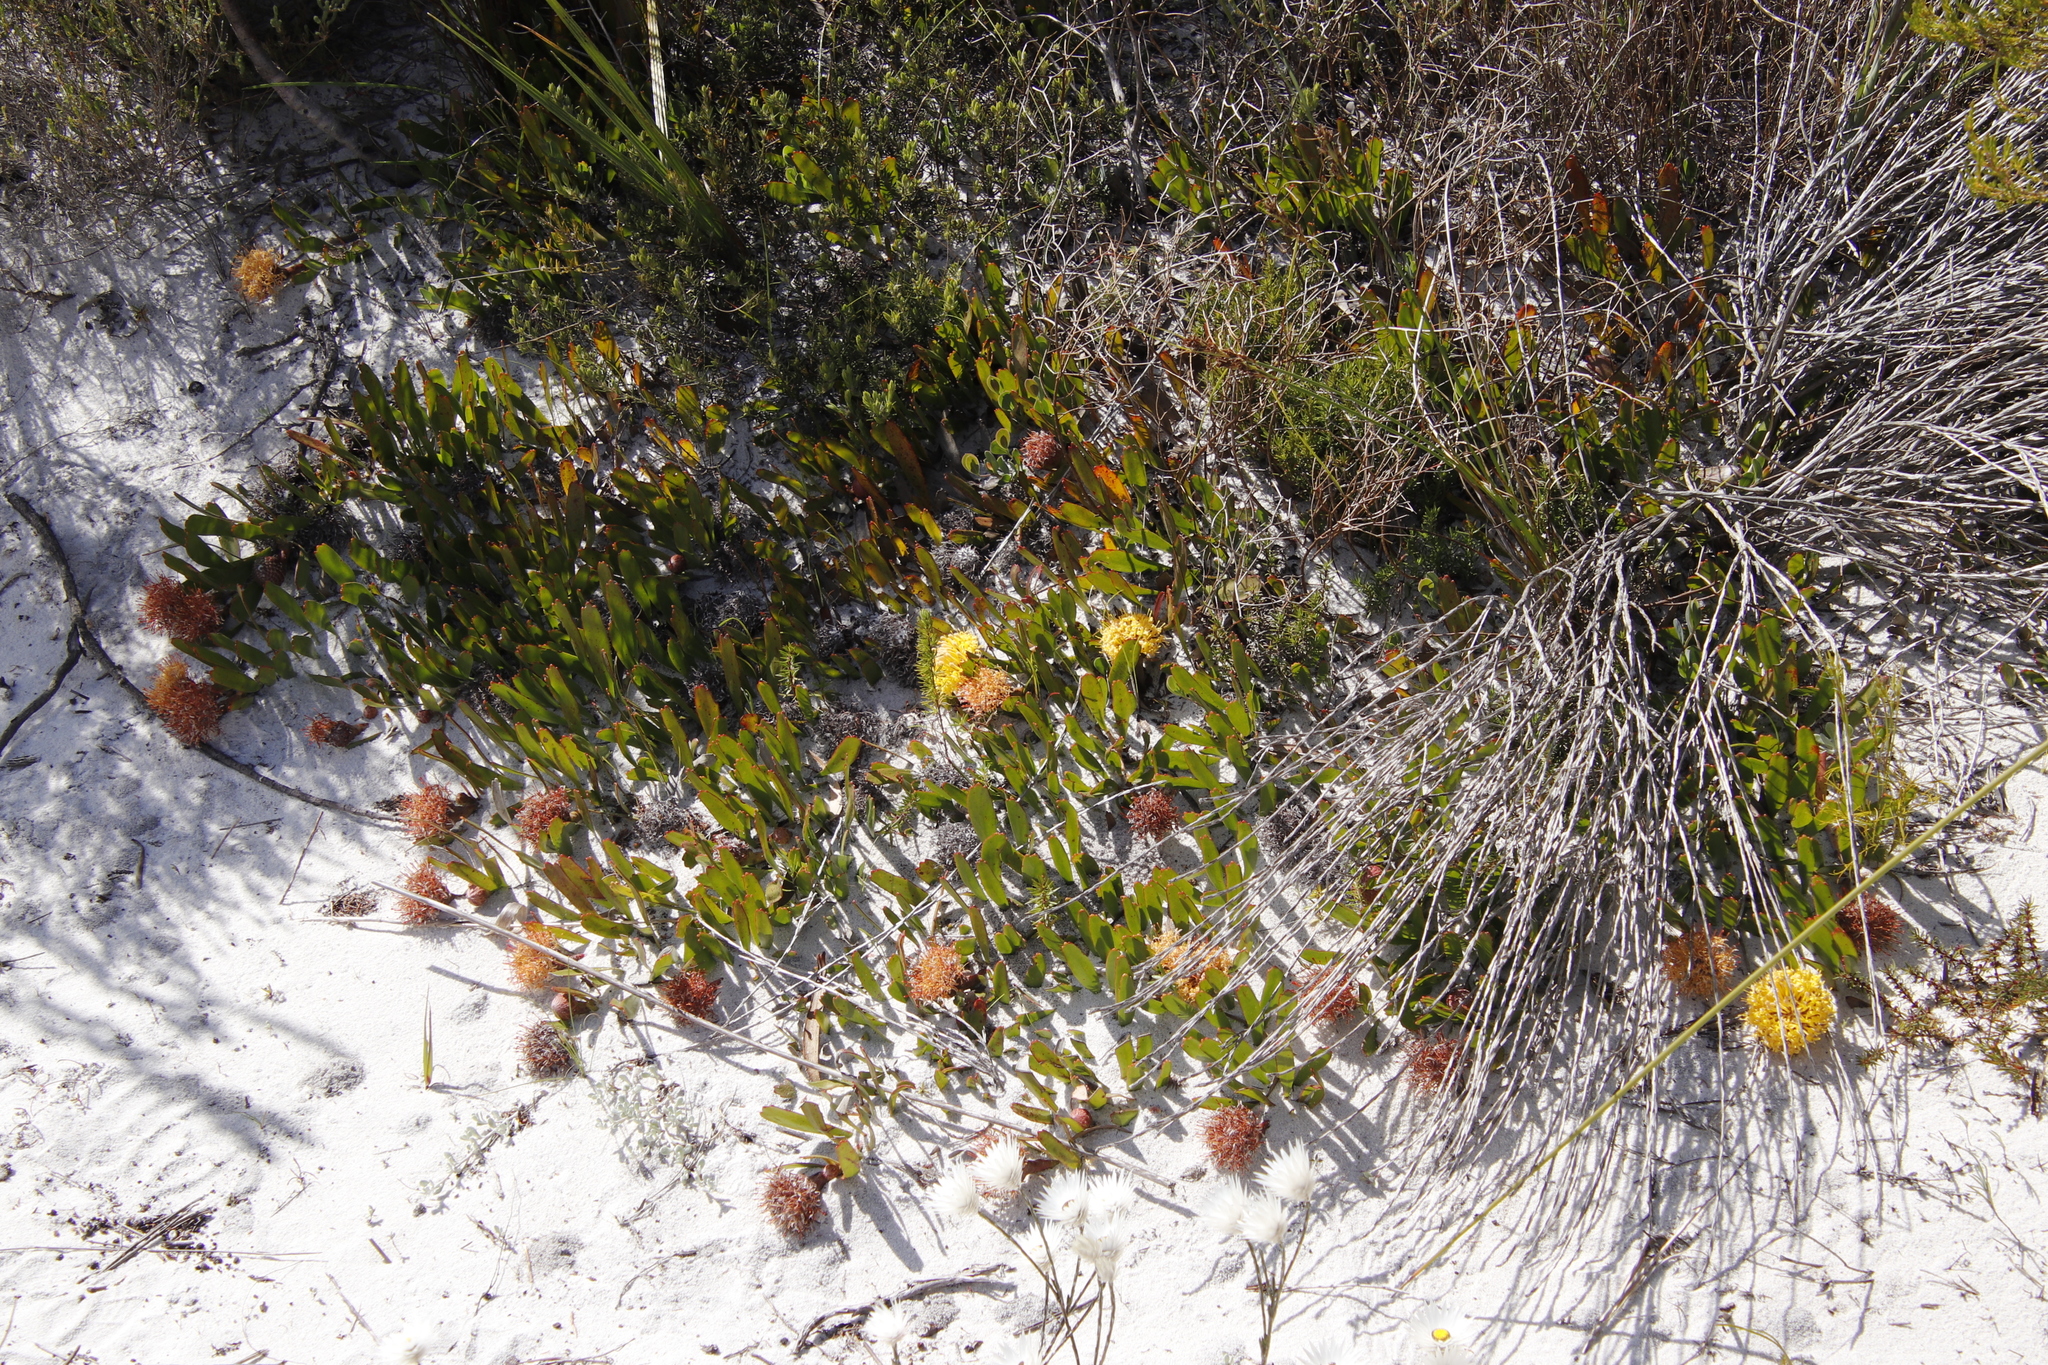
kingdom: Plantae
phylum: Tracheophyta
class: Magnoliopsida
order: Proteales
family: Proteaceae
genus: Leucospermum
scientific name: Leucospermum hypophyllocarpodendron
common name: Snakestem pincushion
